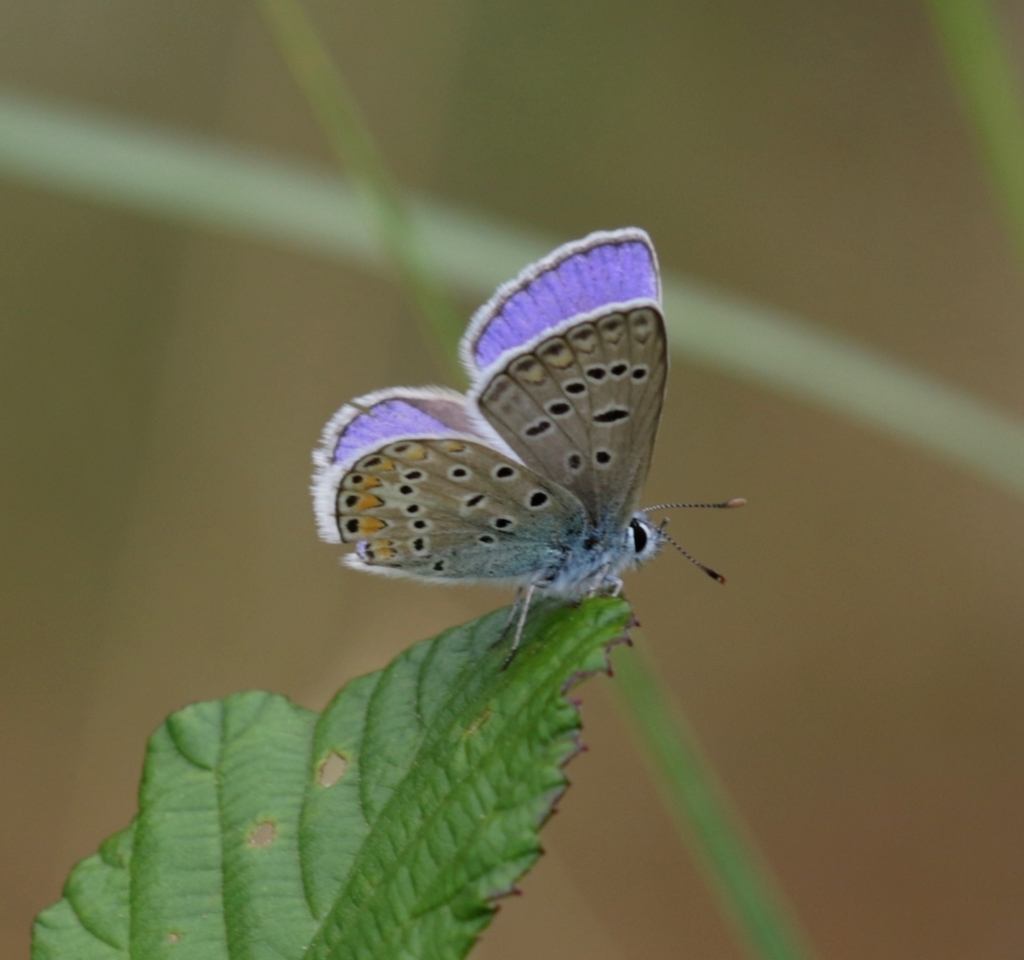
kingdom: Animalia
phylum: Arthropoda
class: Insecta
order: Lepidoptera
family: Lycaenidae
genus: Polyommatus
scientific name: Polyommatus icarus
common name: Common blue
